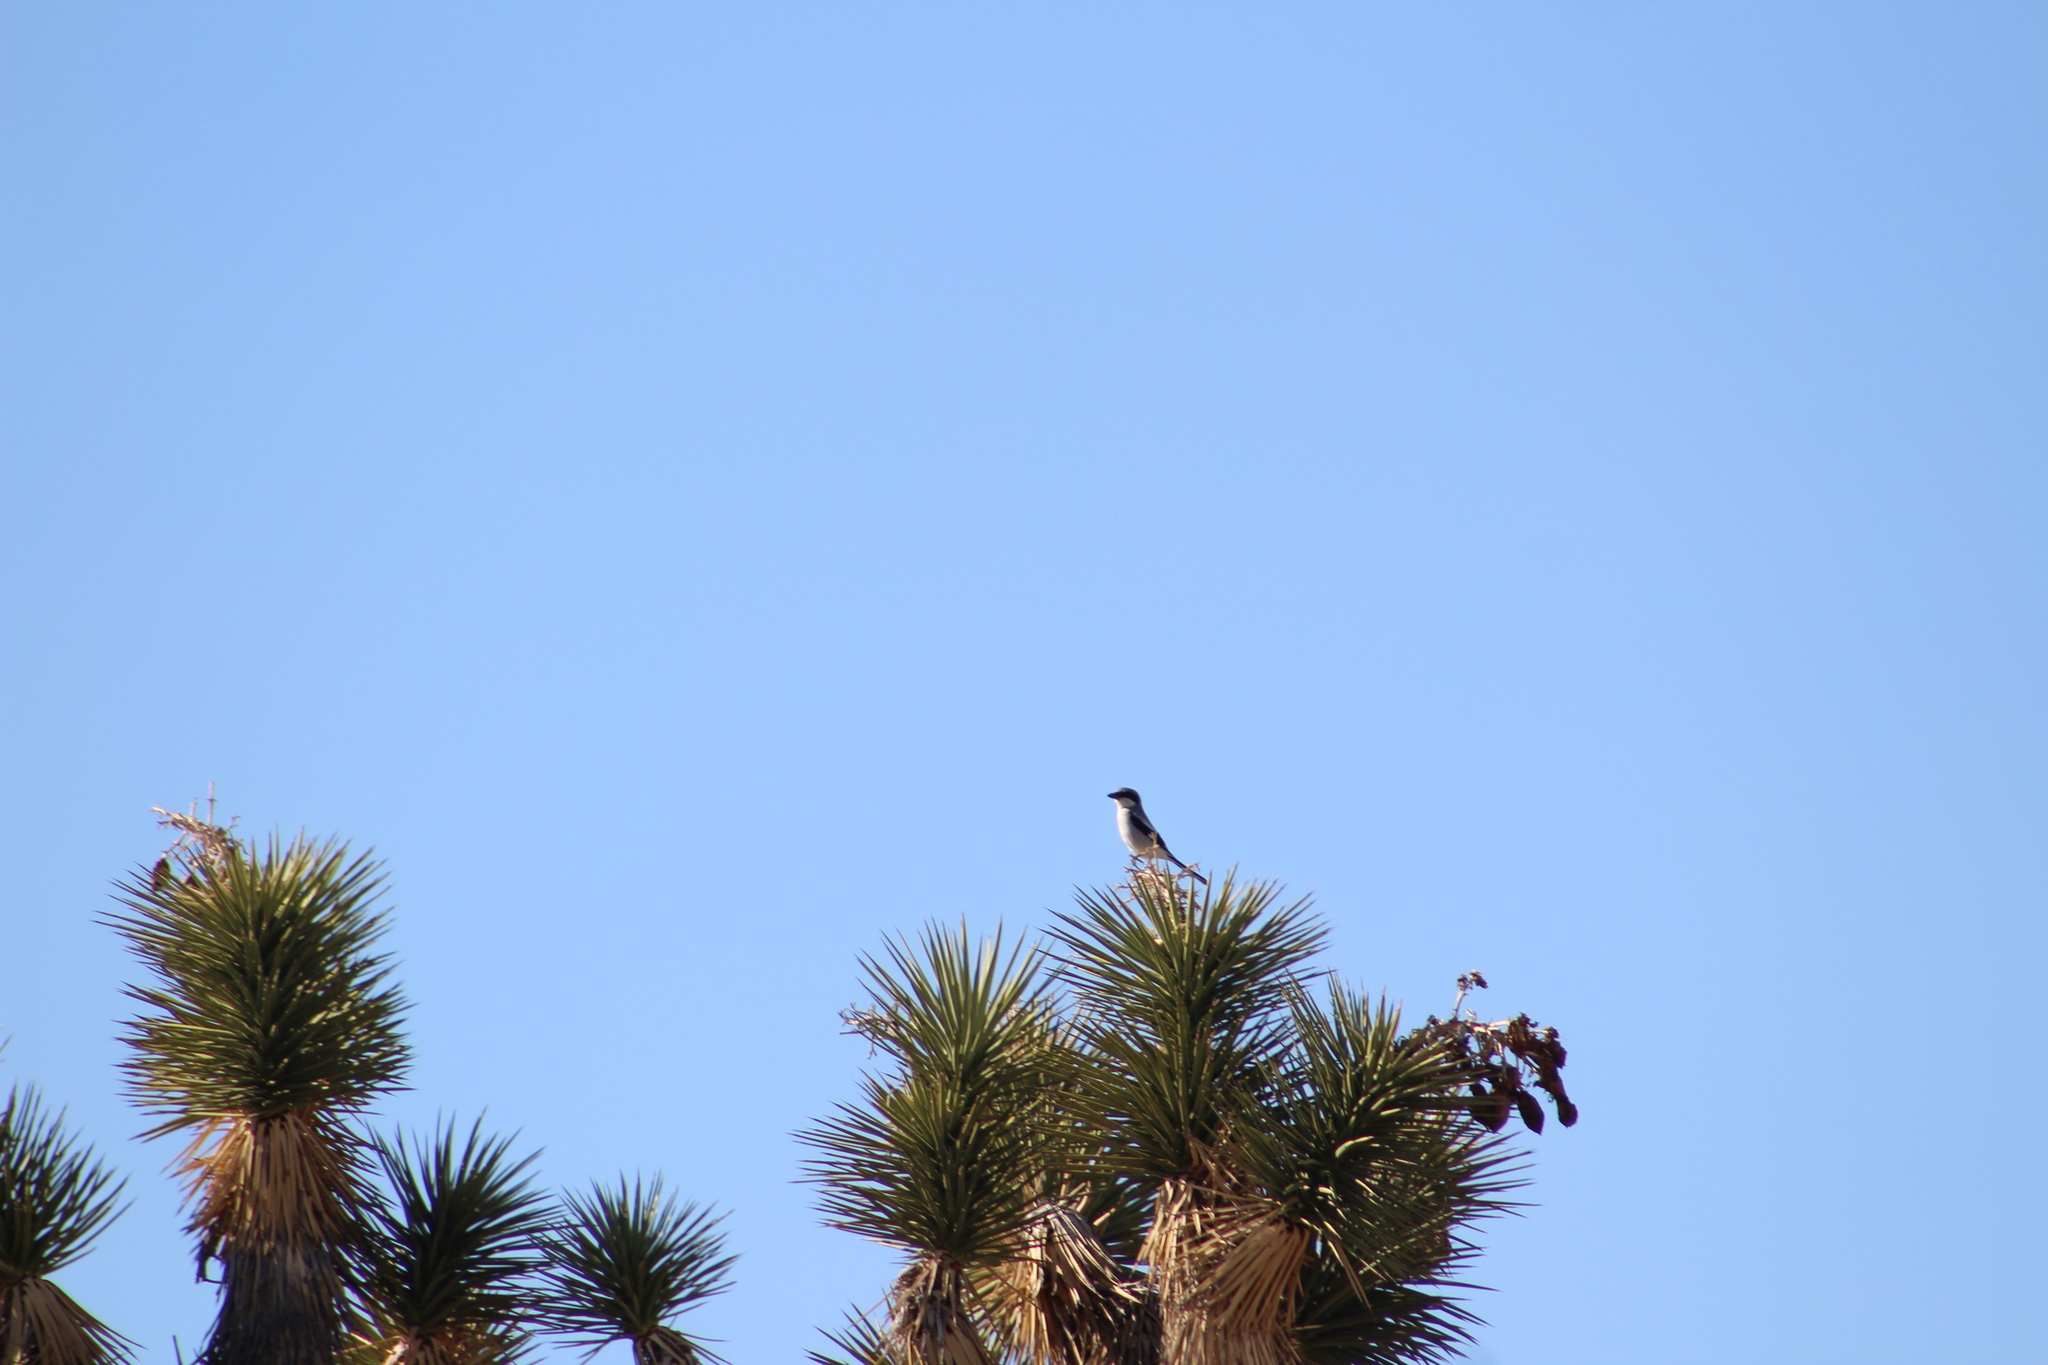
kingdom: Animalia
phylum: Chordata
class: Aves
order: Passeriformes
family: Laniidae
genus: Lanius
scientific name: Lanius ludovicianus
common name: Loggerhead shrike
